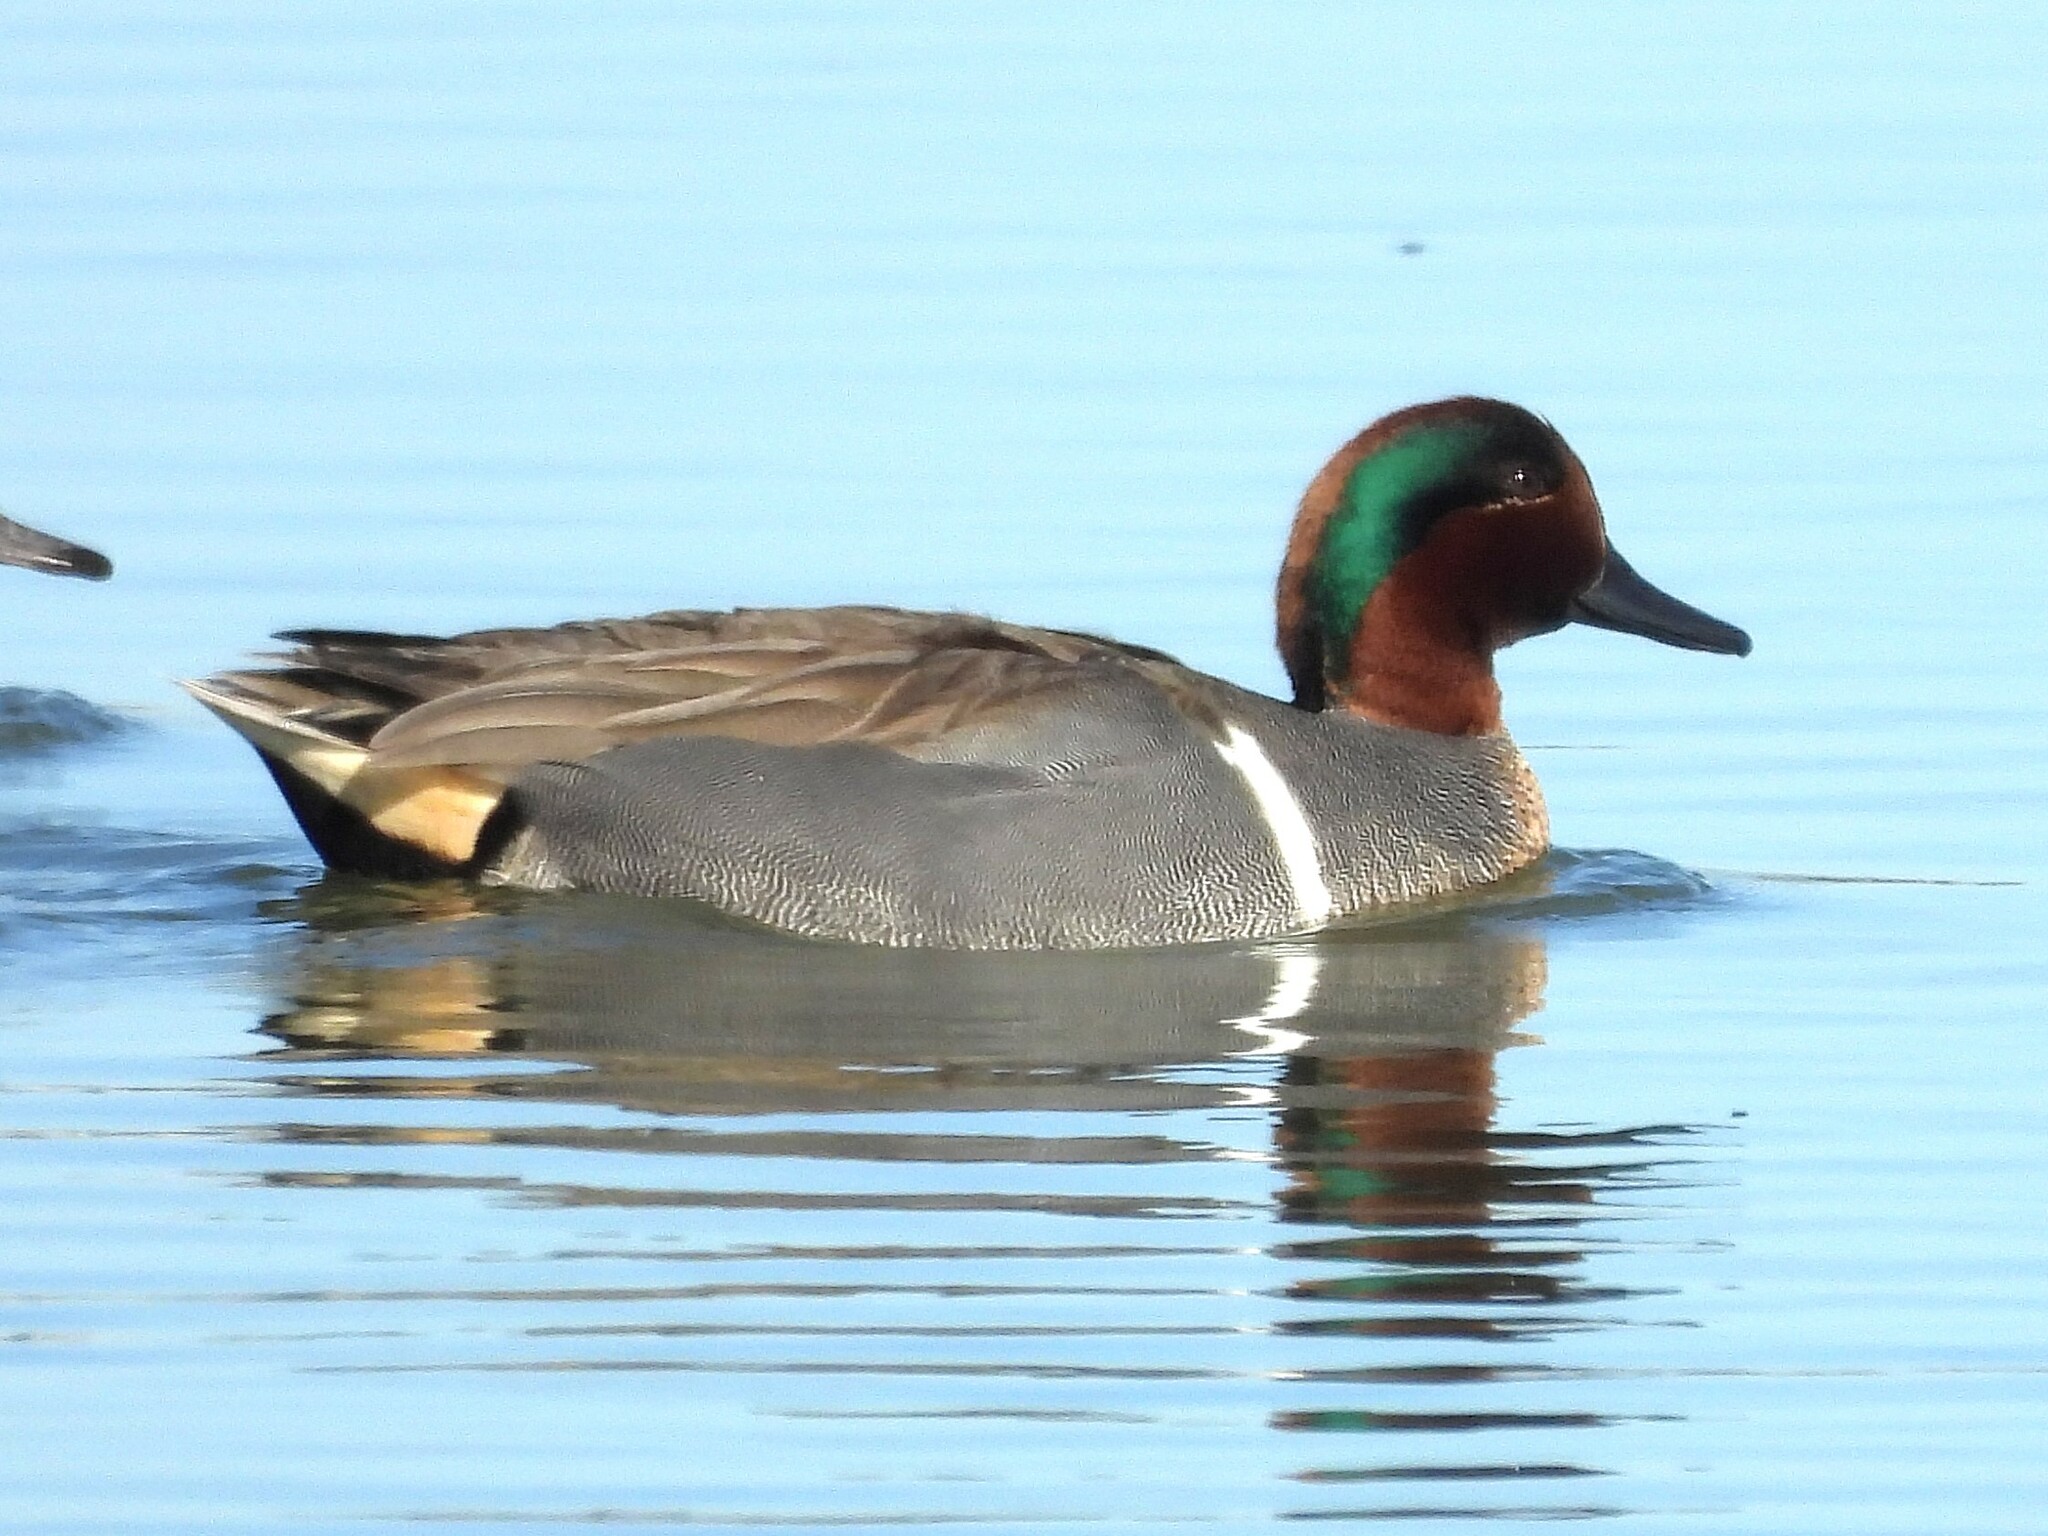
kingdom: Animalia
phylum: Chordata
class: Aves
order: Anseriformes
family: Anatidae
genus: Anas
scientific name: Anas crecca
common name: Eurasian teal
